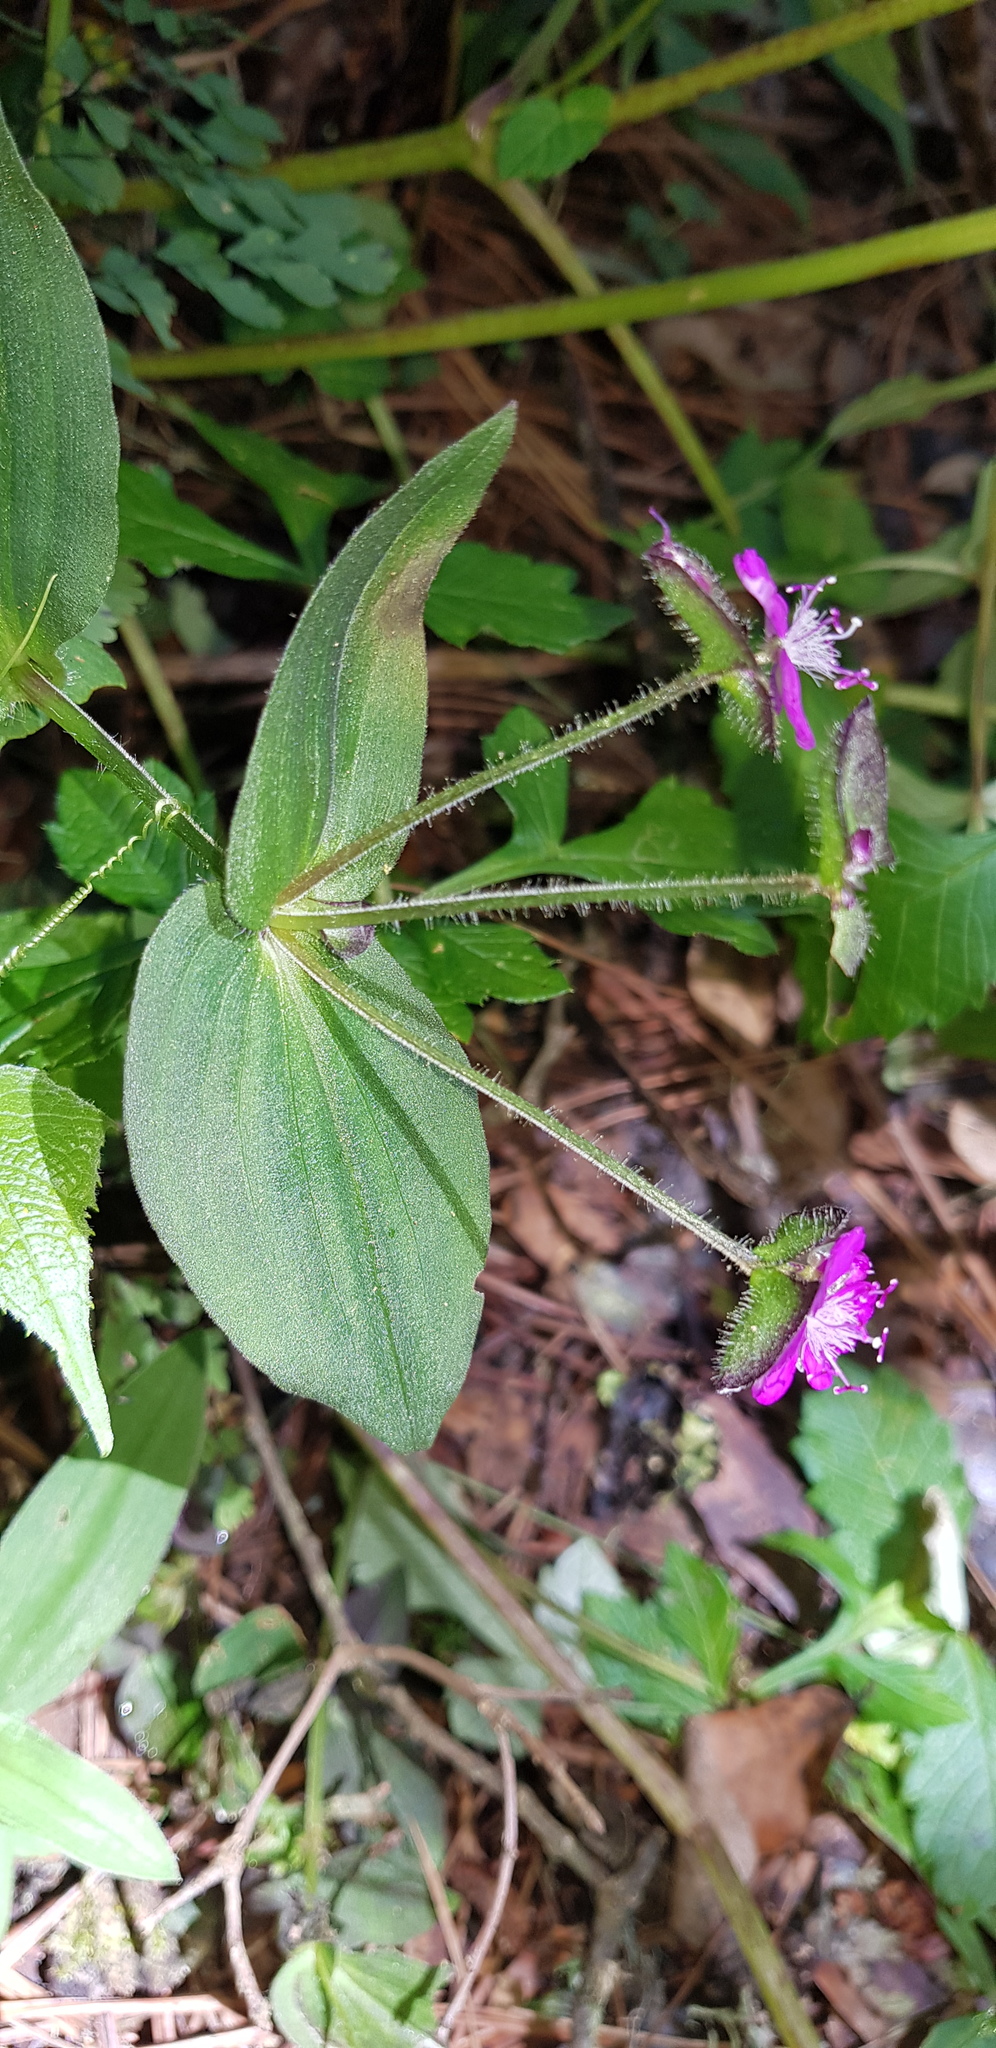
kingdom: Plantae
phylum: Tracheophyta
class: Liliopsida
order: Commelinales
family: Commelinaceae
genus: Tradescantia
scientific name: Tradescantia commelinoides
